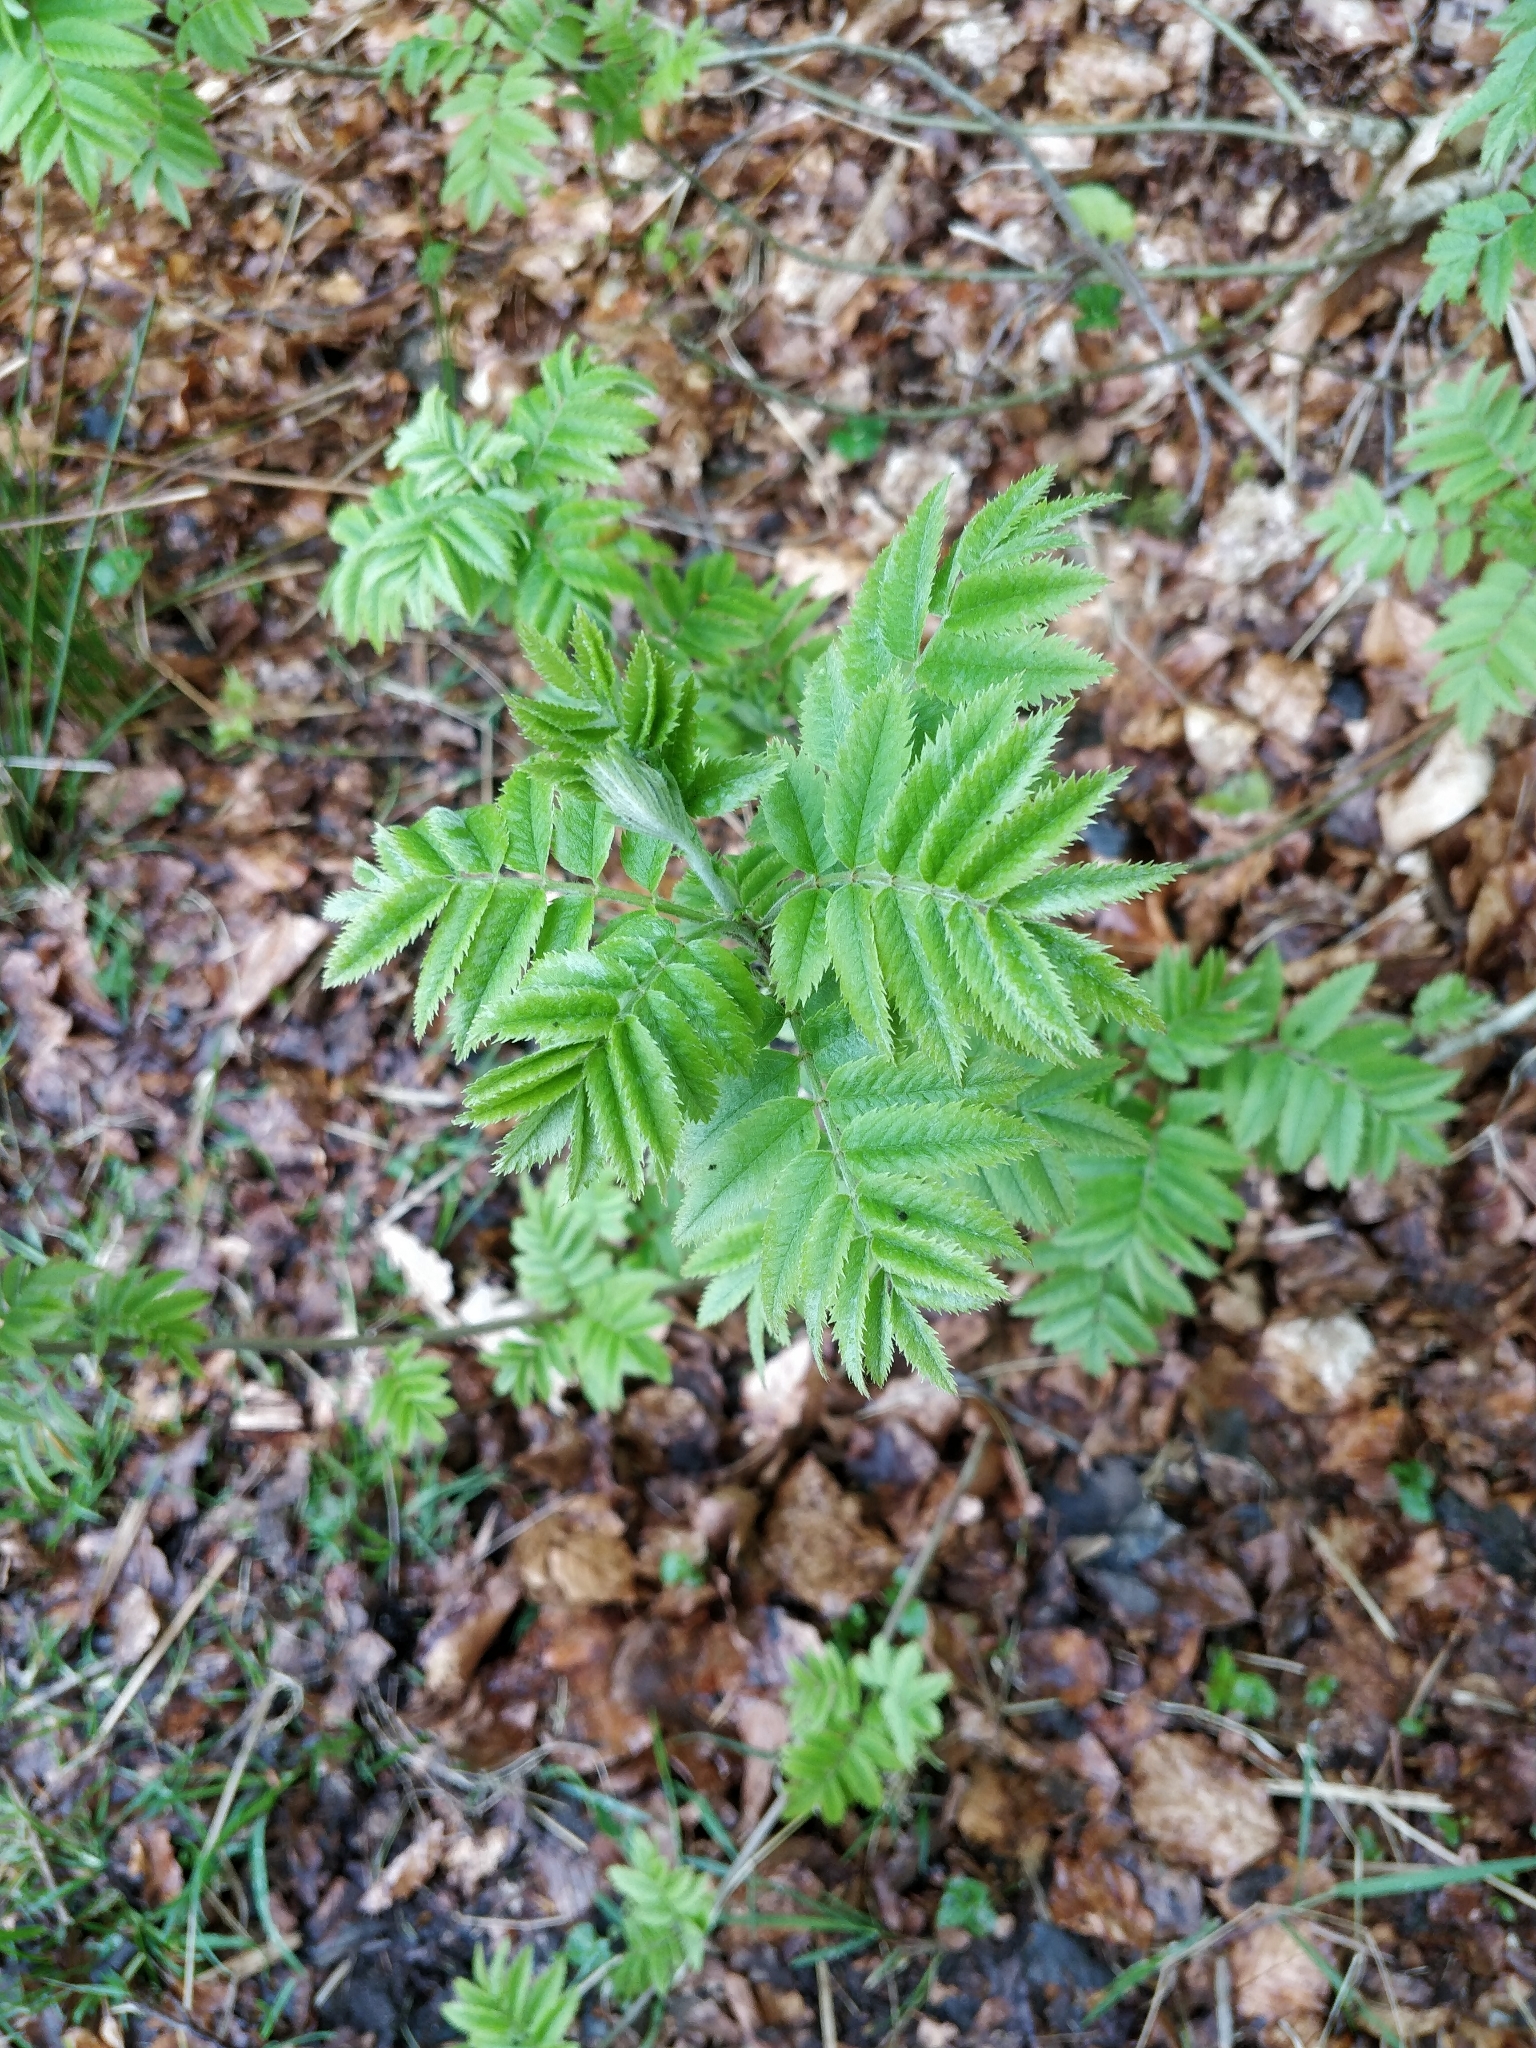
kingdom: Plantae
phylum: Tracheophyta
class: Magnoliopsida
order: Rosales
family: Rosaceae
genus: Sorbus
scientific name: Sorbus aucuparia
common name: Rowan
